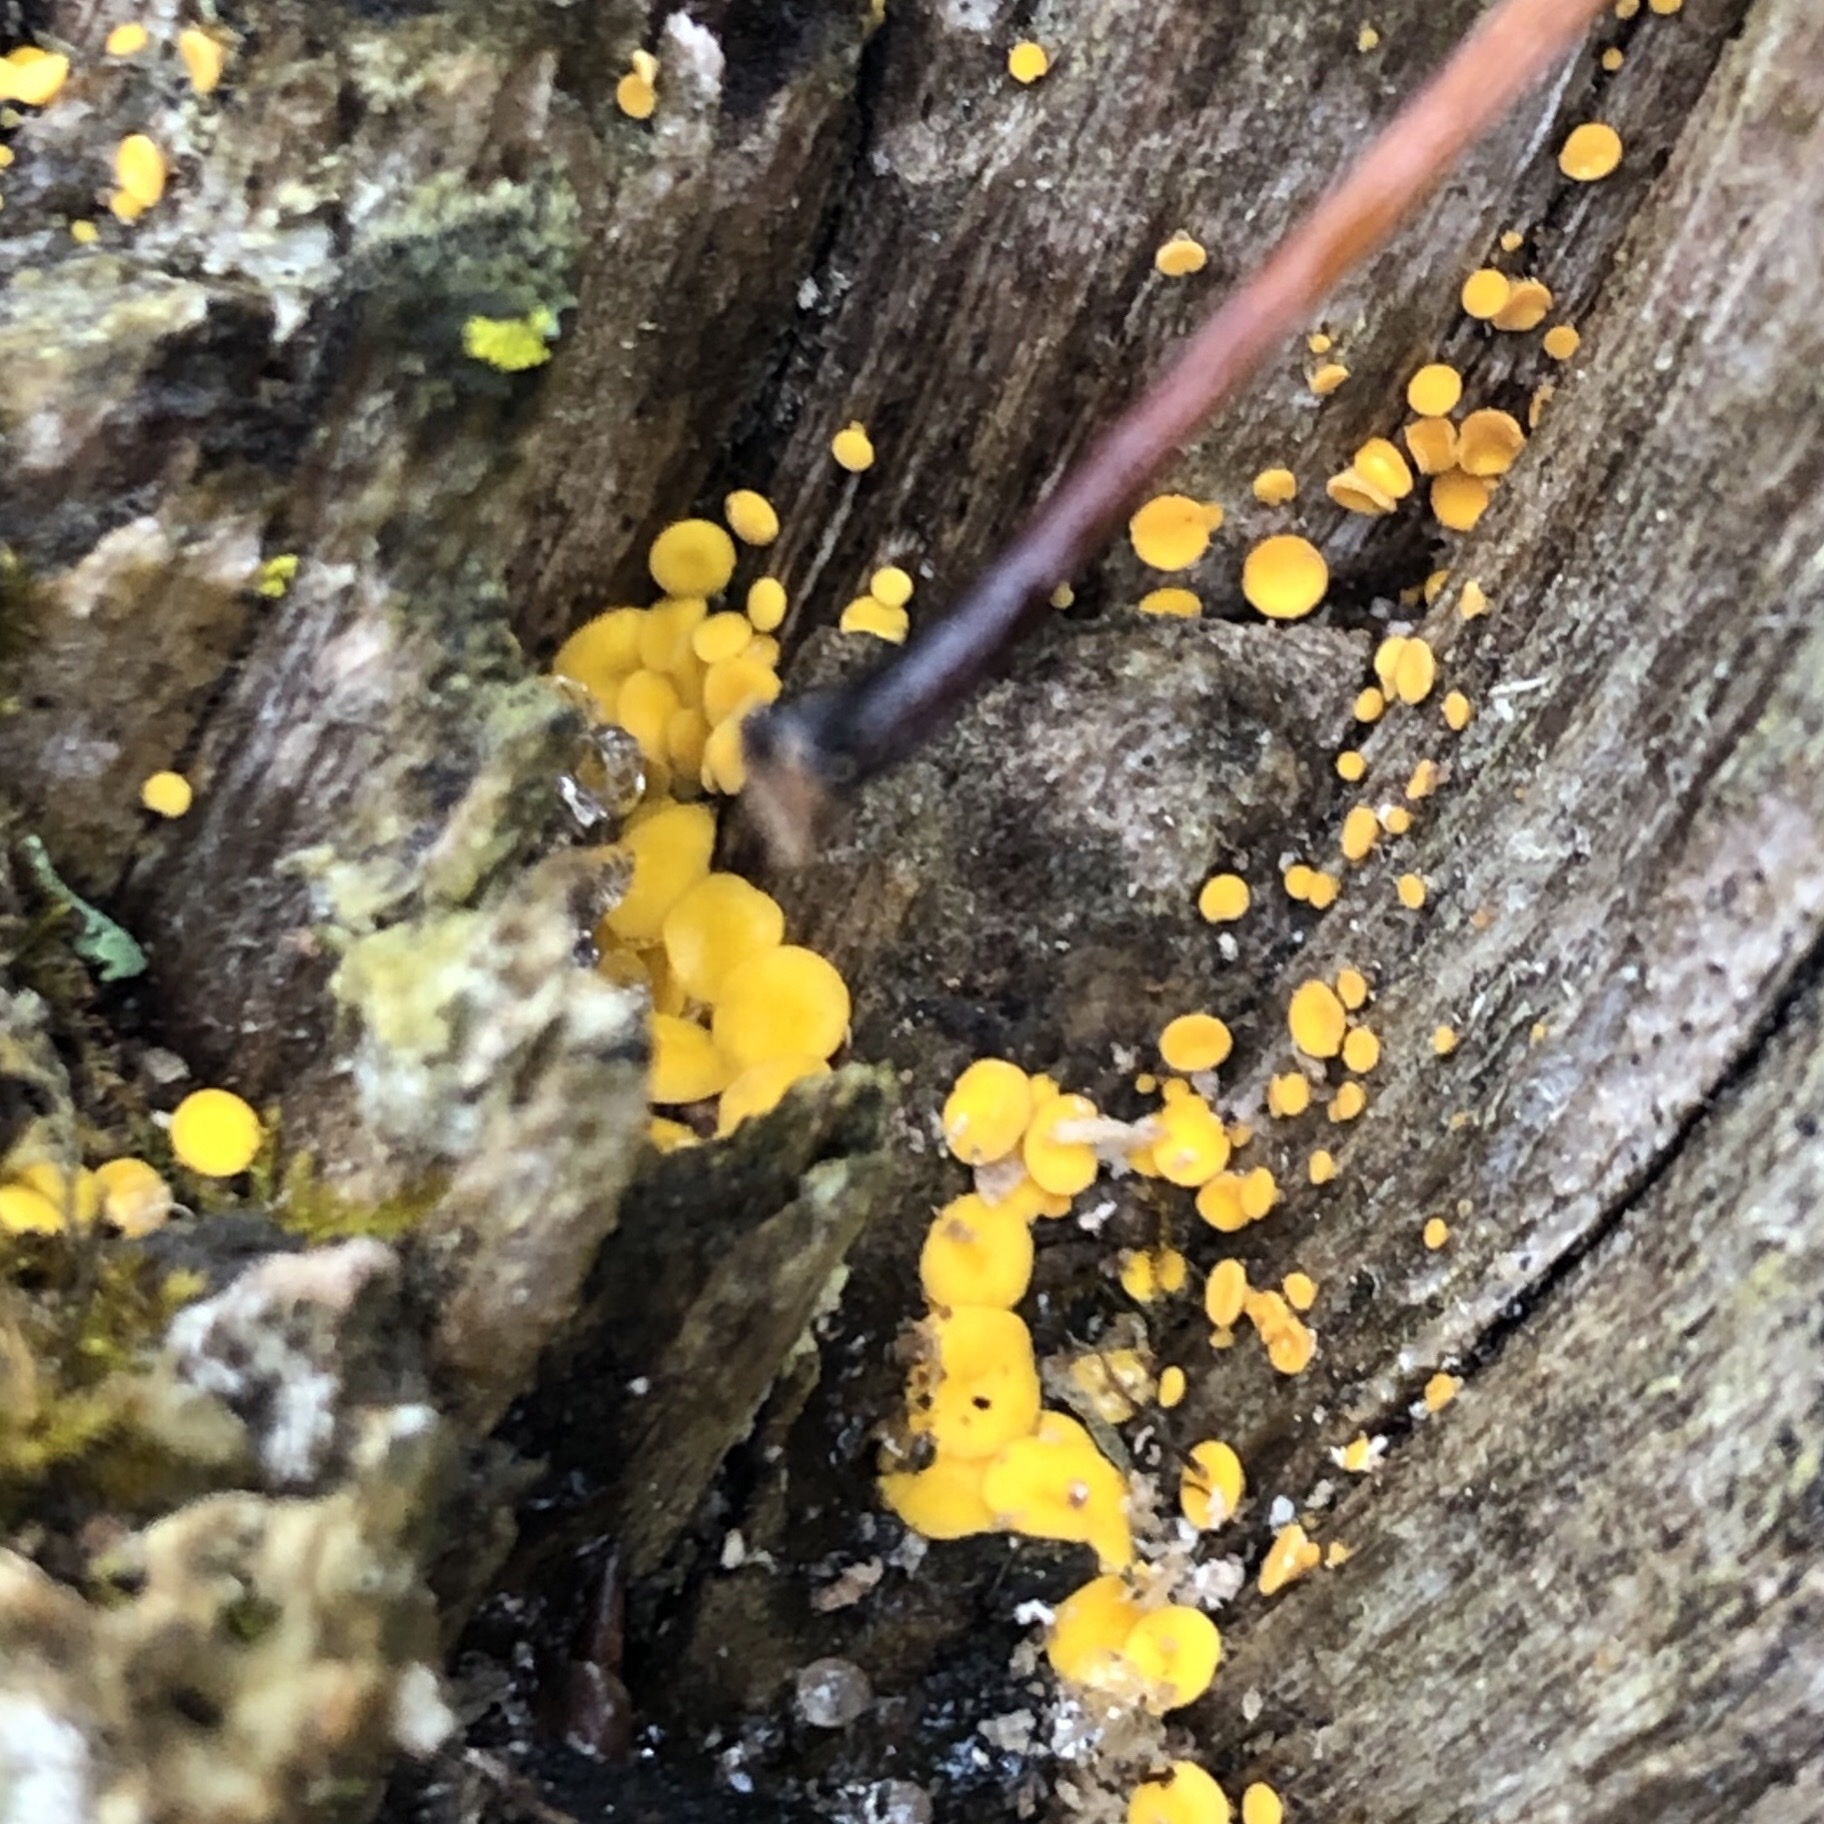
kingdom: Fungi
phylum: Ascomycota
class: Leotiomycetes
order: Helotiales
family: Pezizellaceae
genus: Calycina
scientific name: Calycina citrina
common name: Yellow fairy cups
